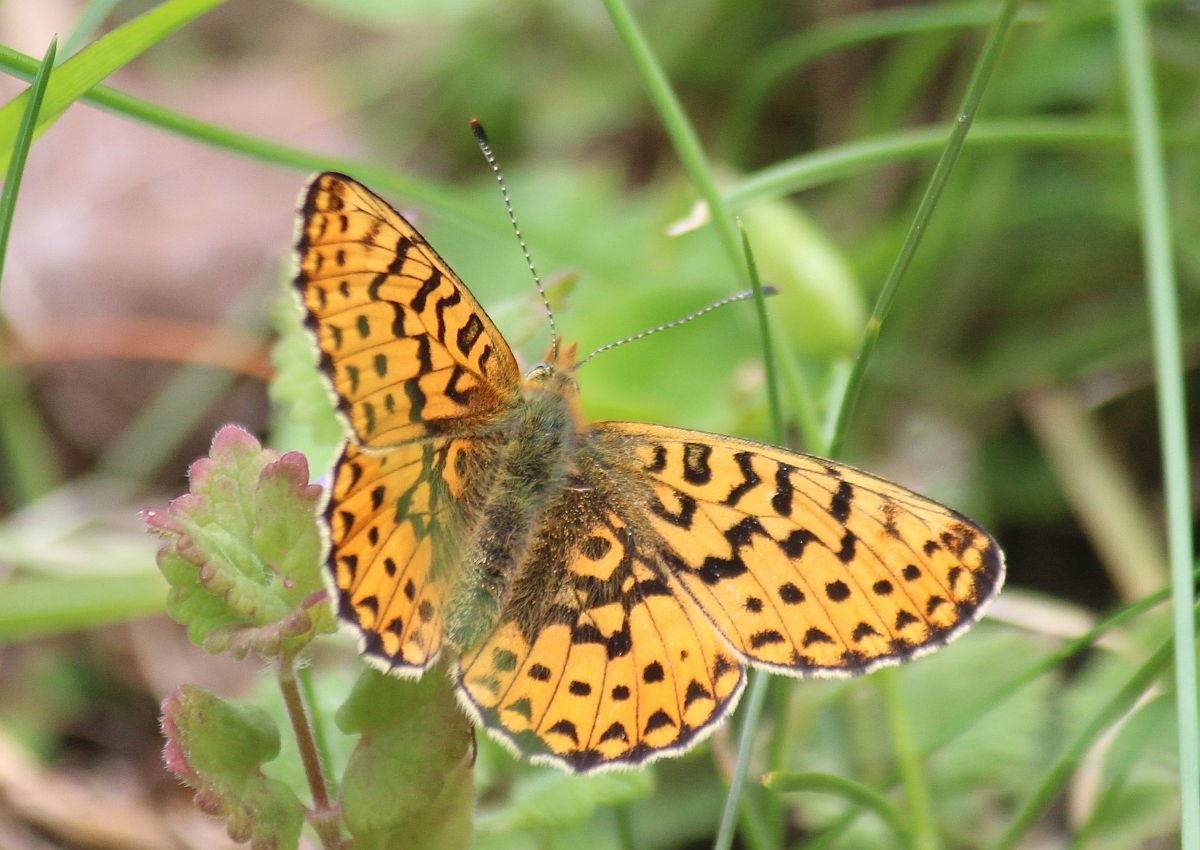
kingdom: Animalia
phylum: Arthropoda
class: Insecta
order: Lepidoptera
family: Nymphalidae
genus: Clossiana
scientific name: Clossiana euphrosyne
